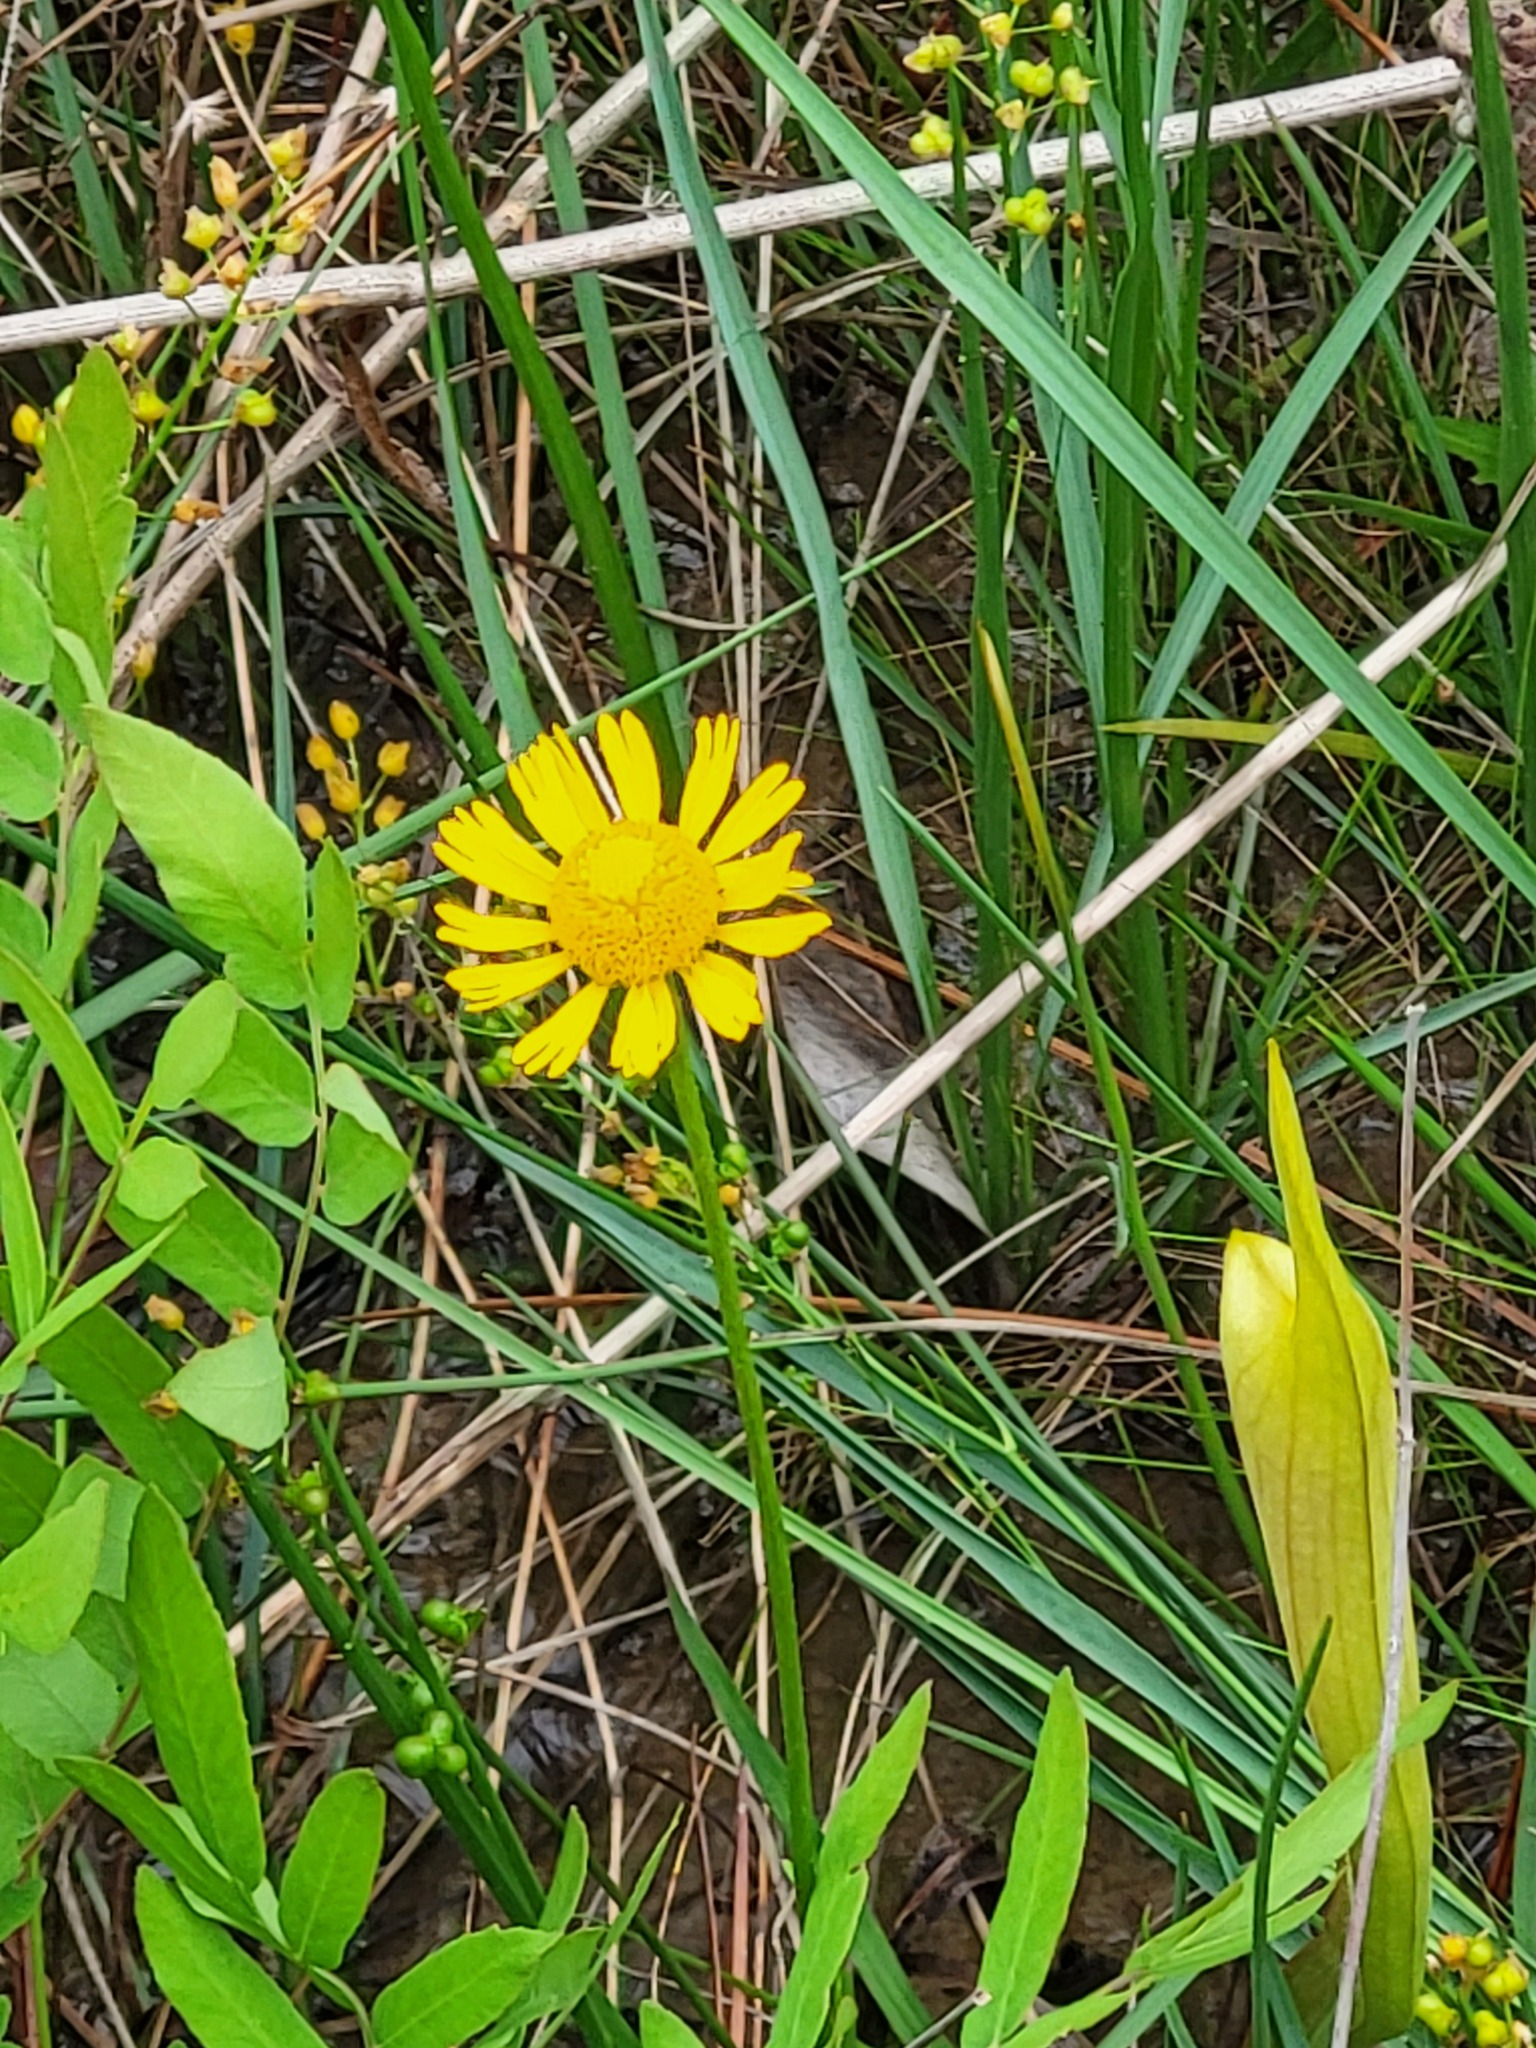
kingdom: Plantae
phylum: Tracheophyta
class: Magnoliopsida
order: Asterales
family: Asteraceae
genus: Helenium
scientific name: Helenium drummondii
